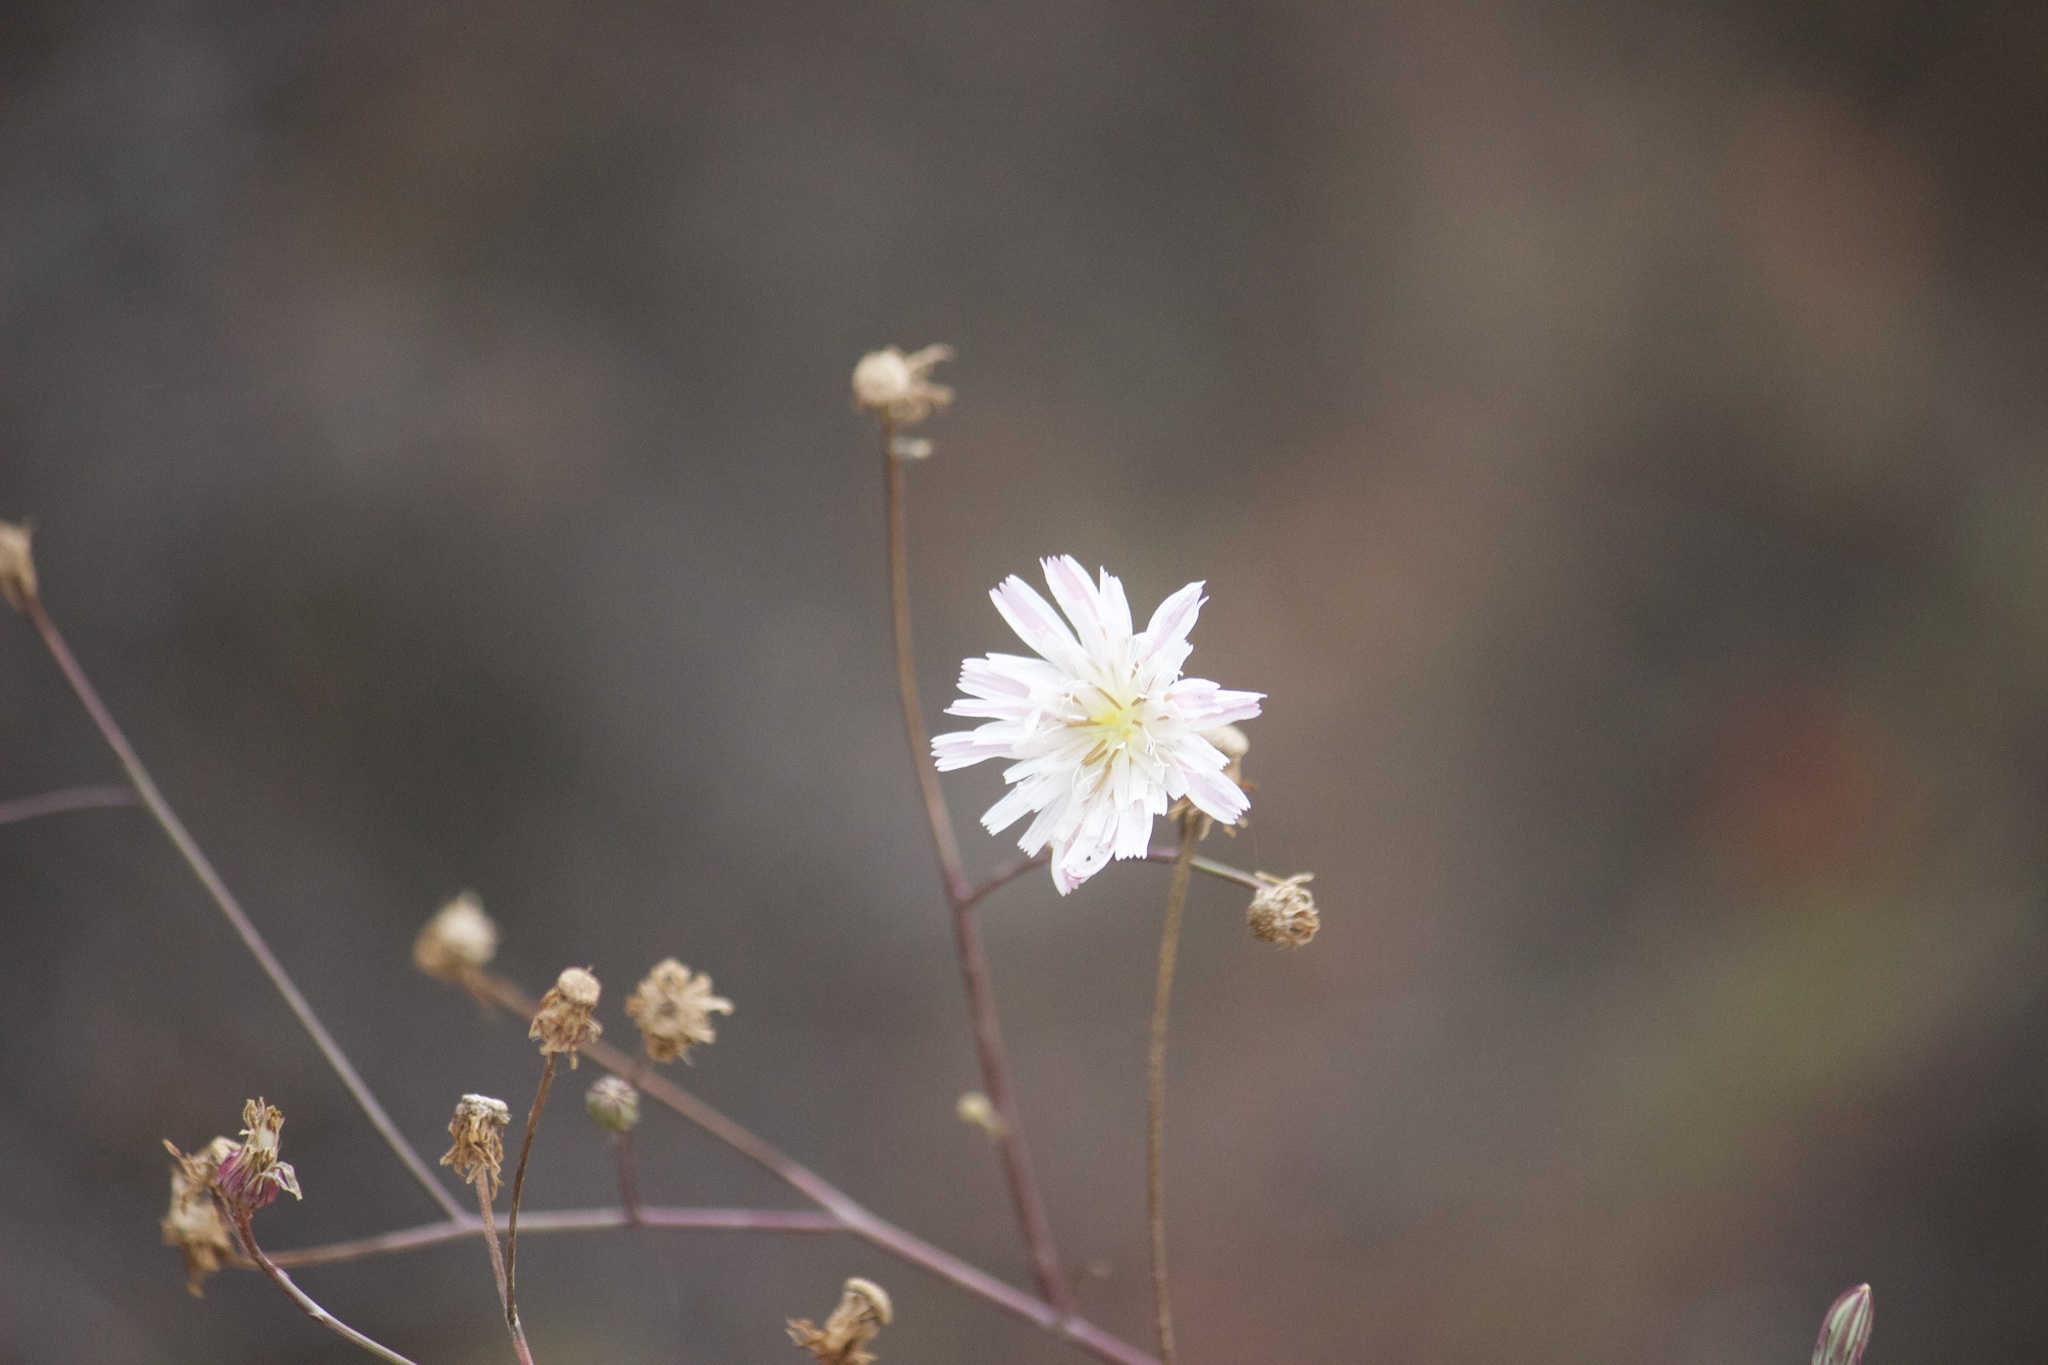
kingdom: Plantae
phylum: Tracheophyta
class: Magnoliopsida
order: Asterales
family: Asteraceae
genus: Malacothrix
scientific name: Malacothrix saxatilis
